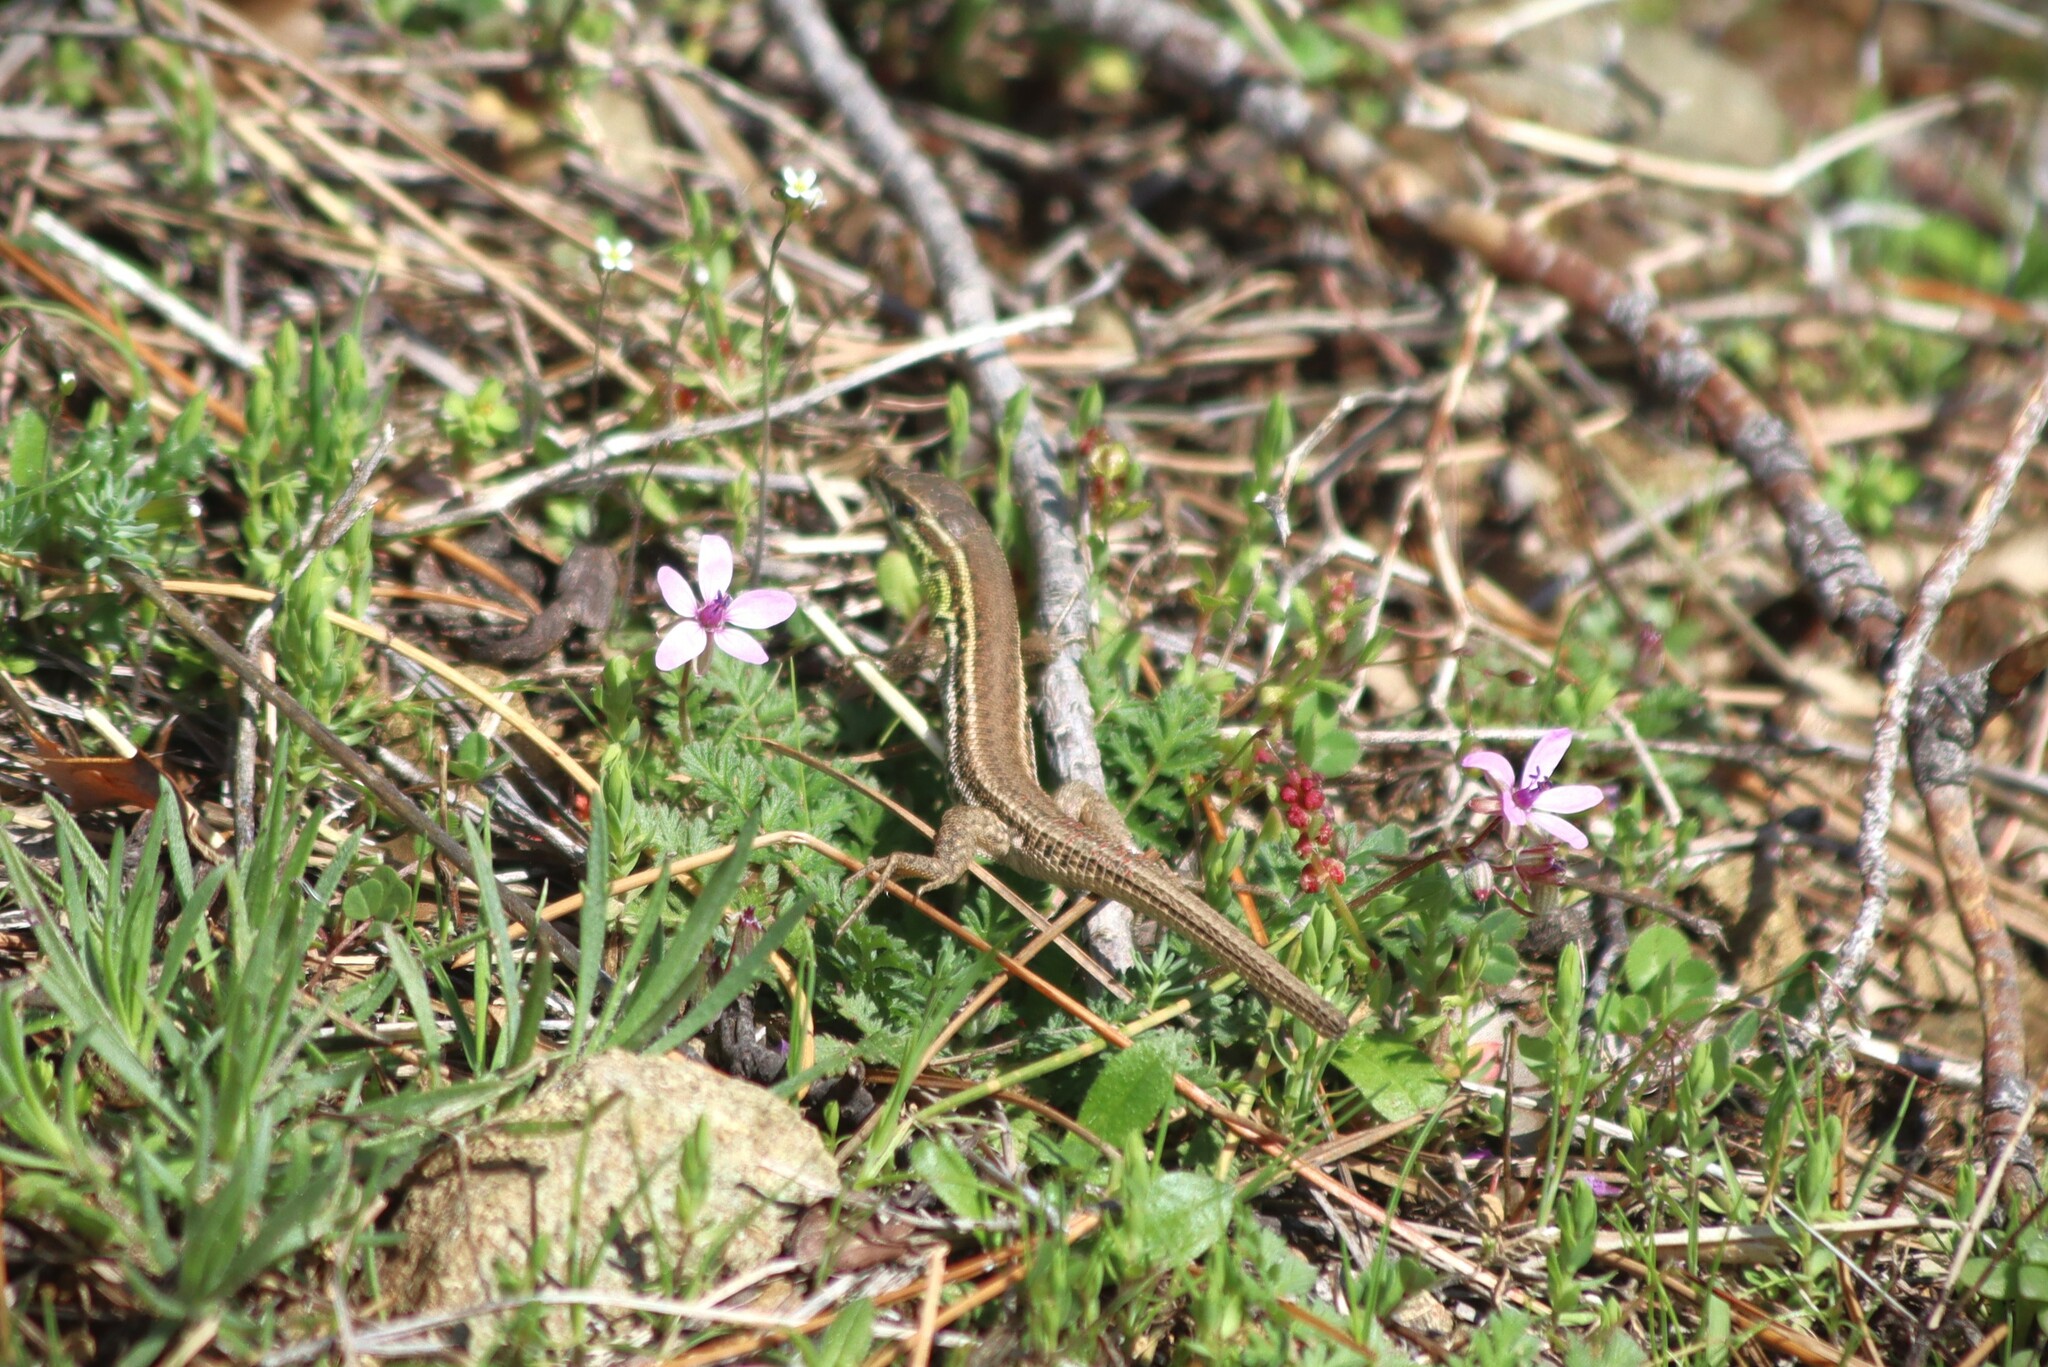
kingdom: Animalia
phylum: Chordata
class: Squamata
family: Lacertidae
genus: Ophisops
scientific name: Ophisops elegans
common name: Snake-eyed lizard
